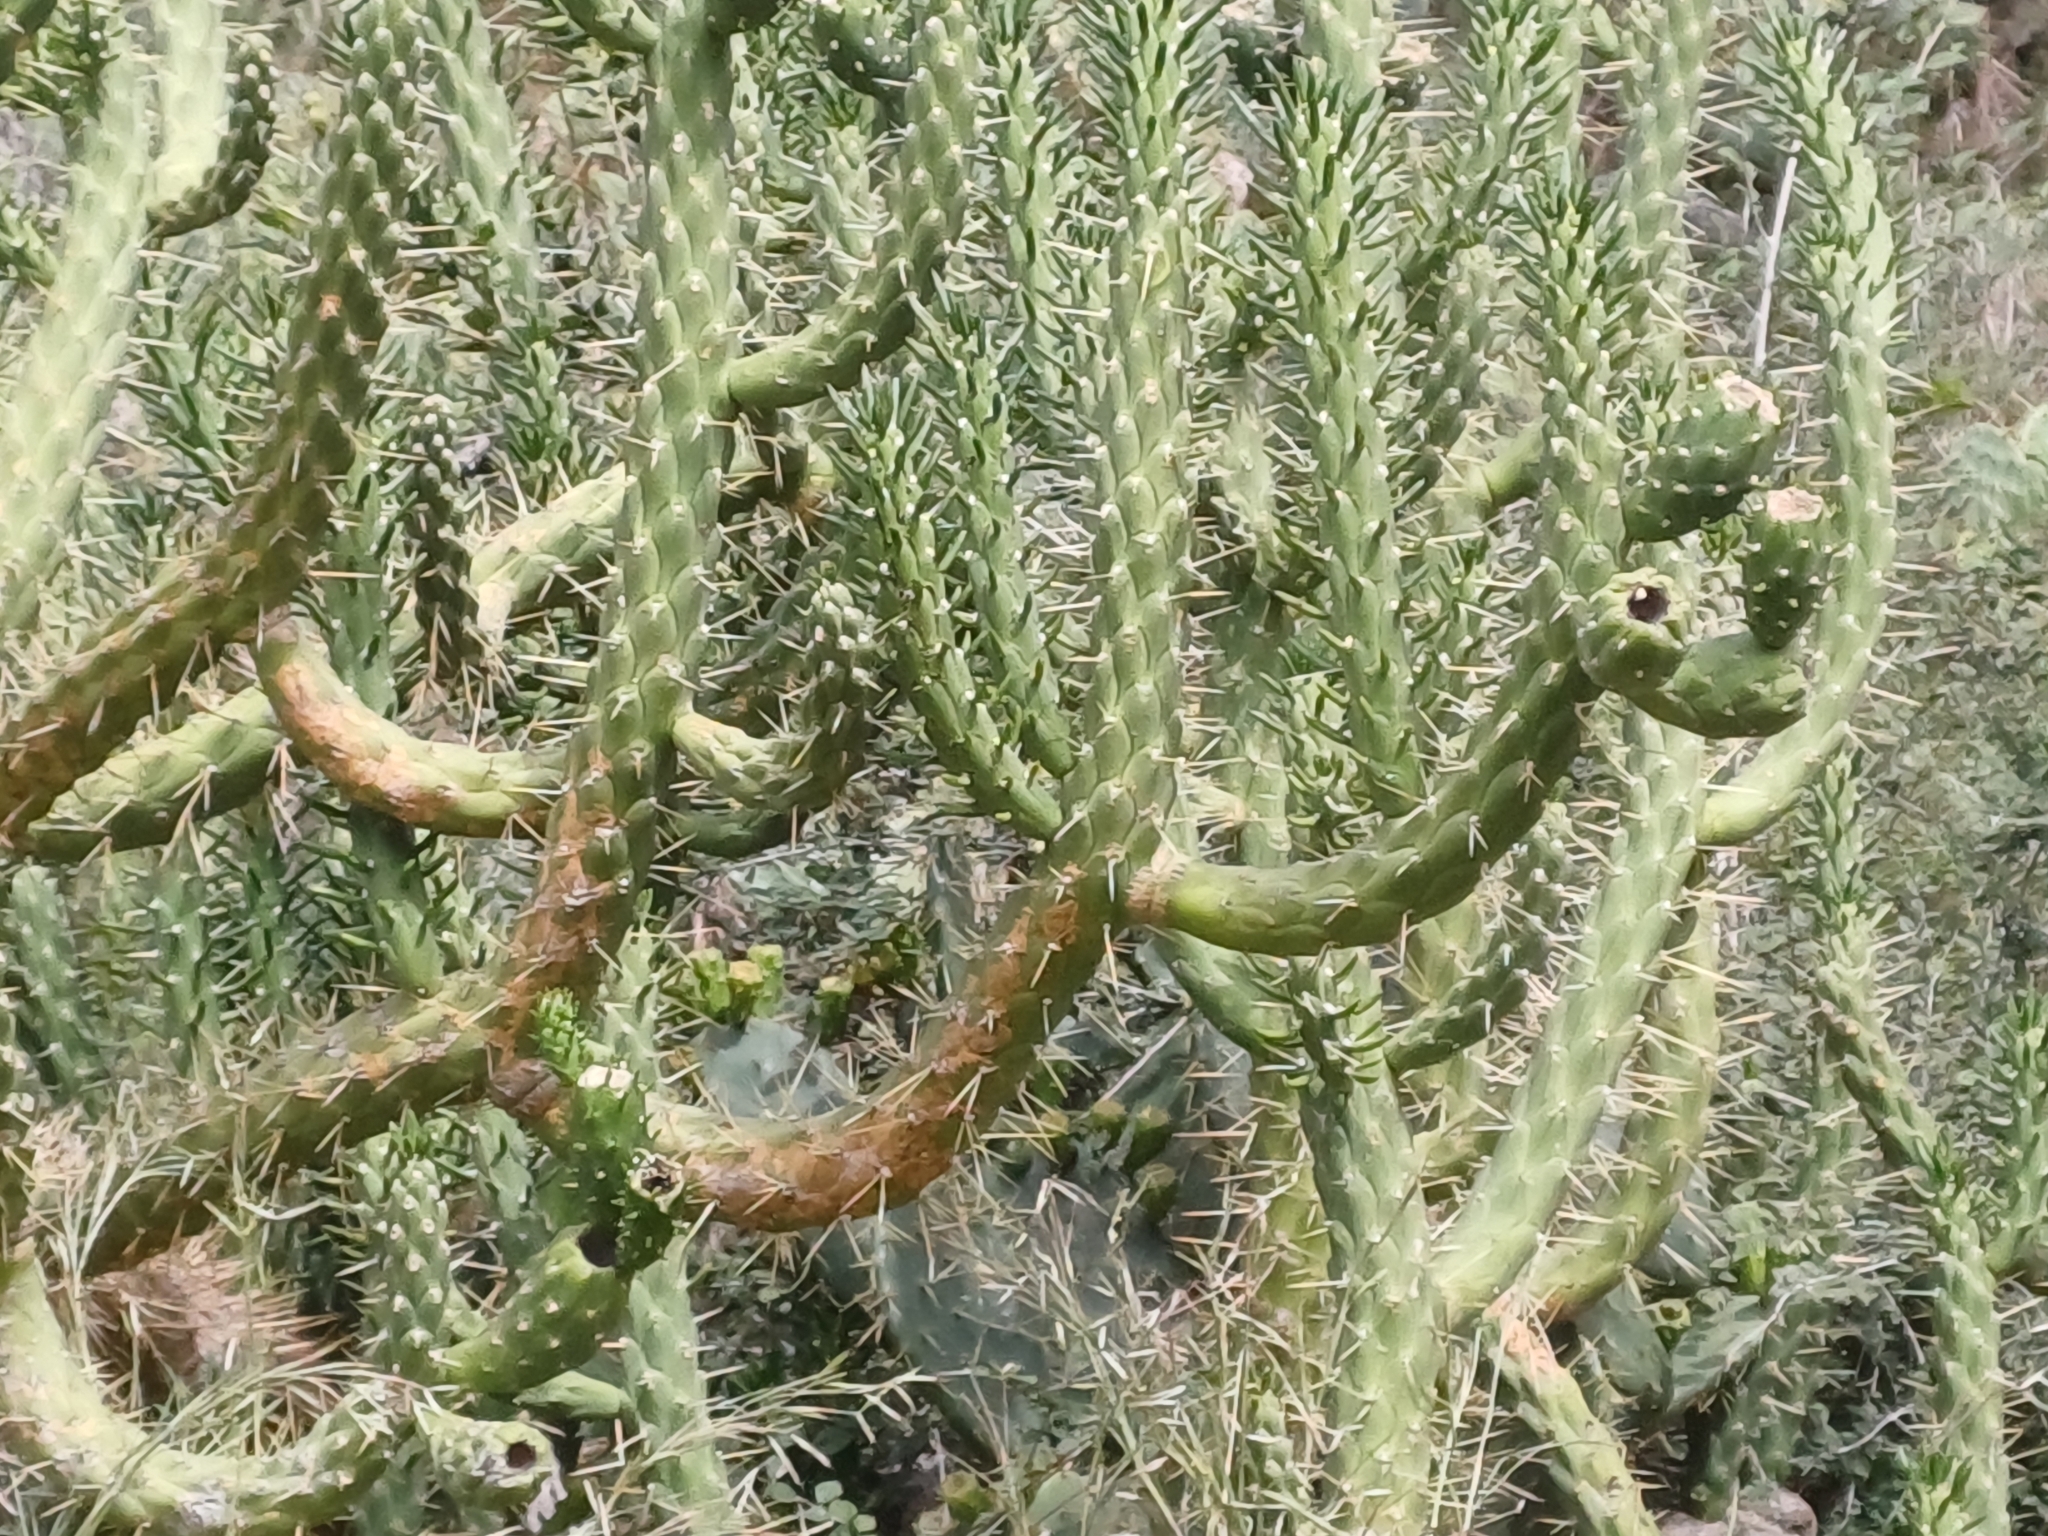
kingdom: Plantae
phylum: Tracheophyta
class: Magnoliopsida
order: Caryophyllales
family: Cactaceae
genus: Austrocylindropuntia
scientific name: Austrocylindropuntia subulata
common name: Eve's needle cactus
